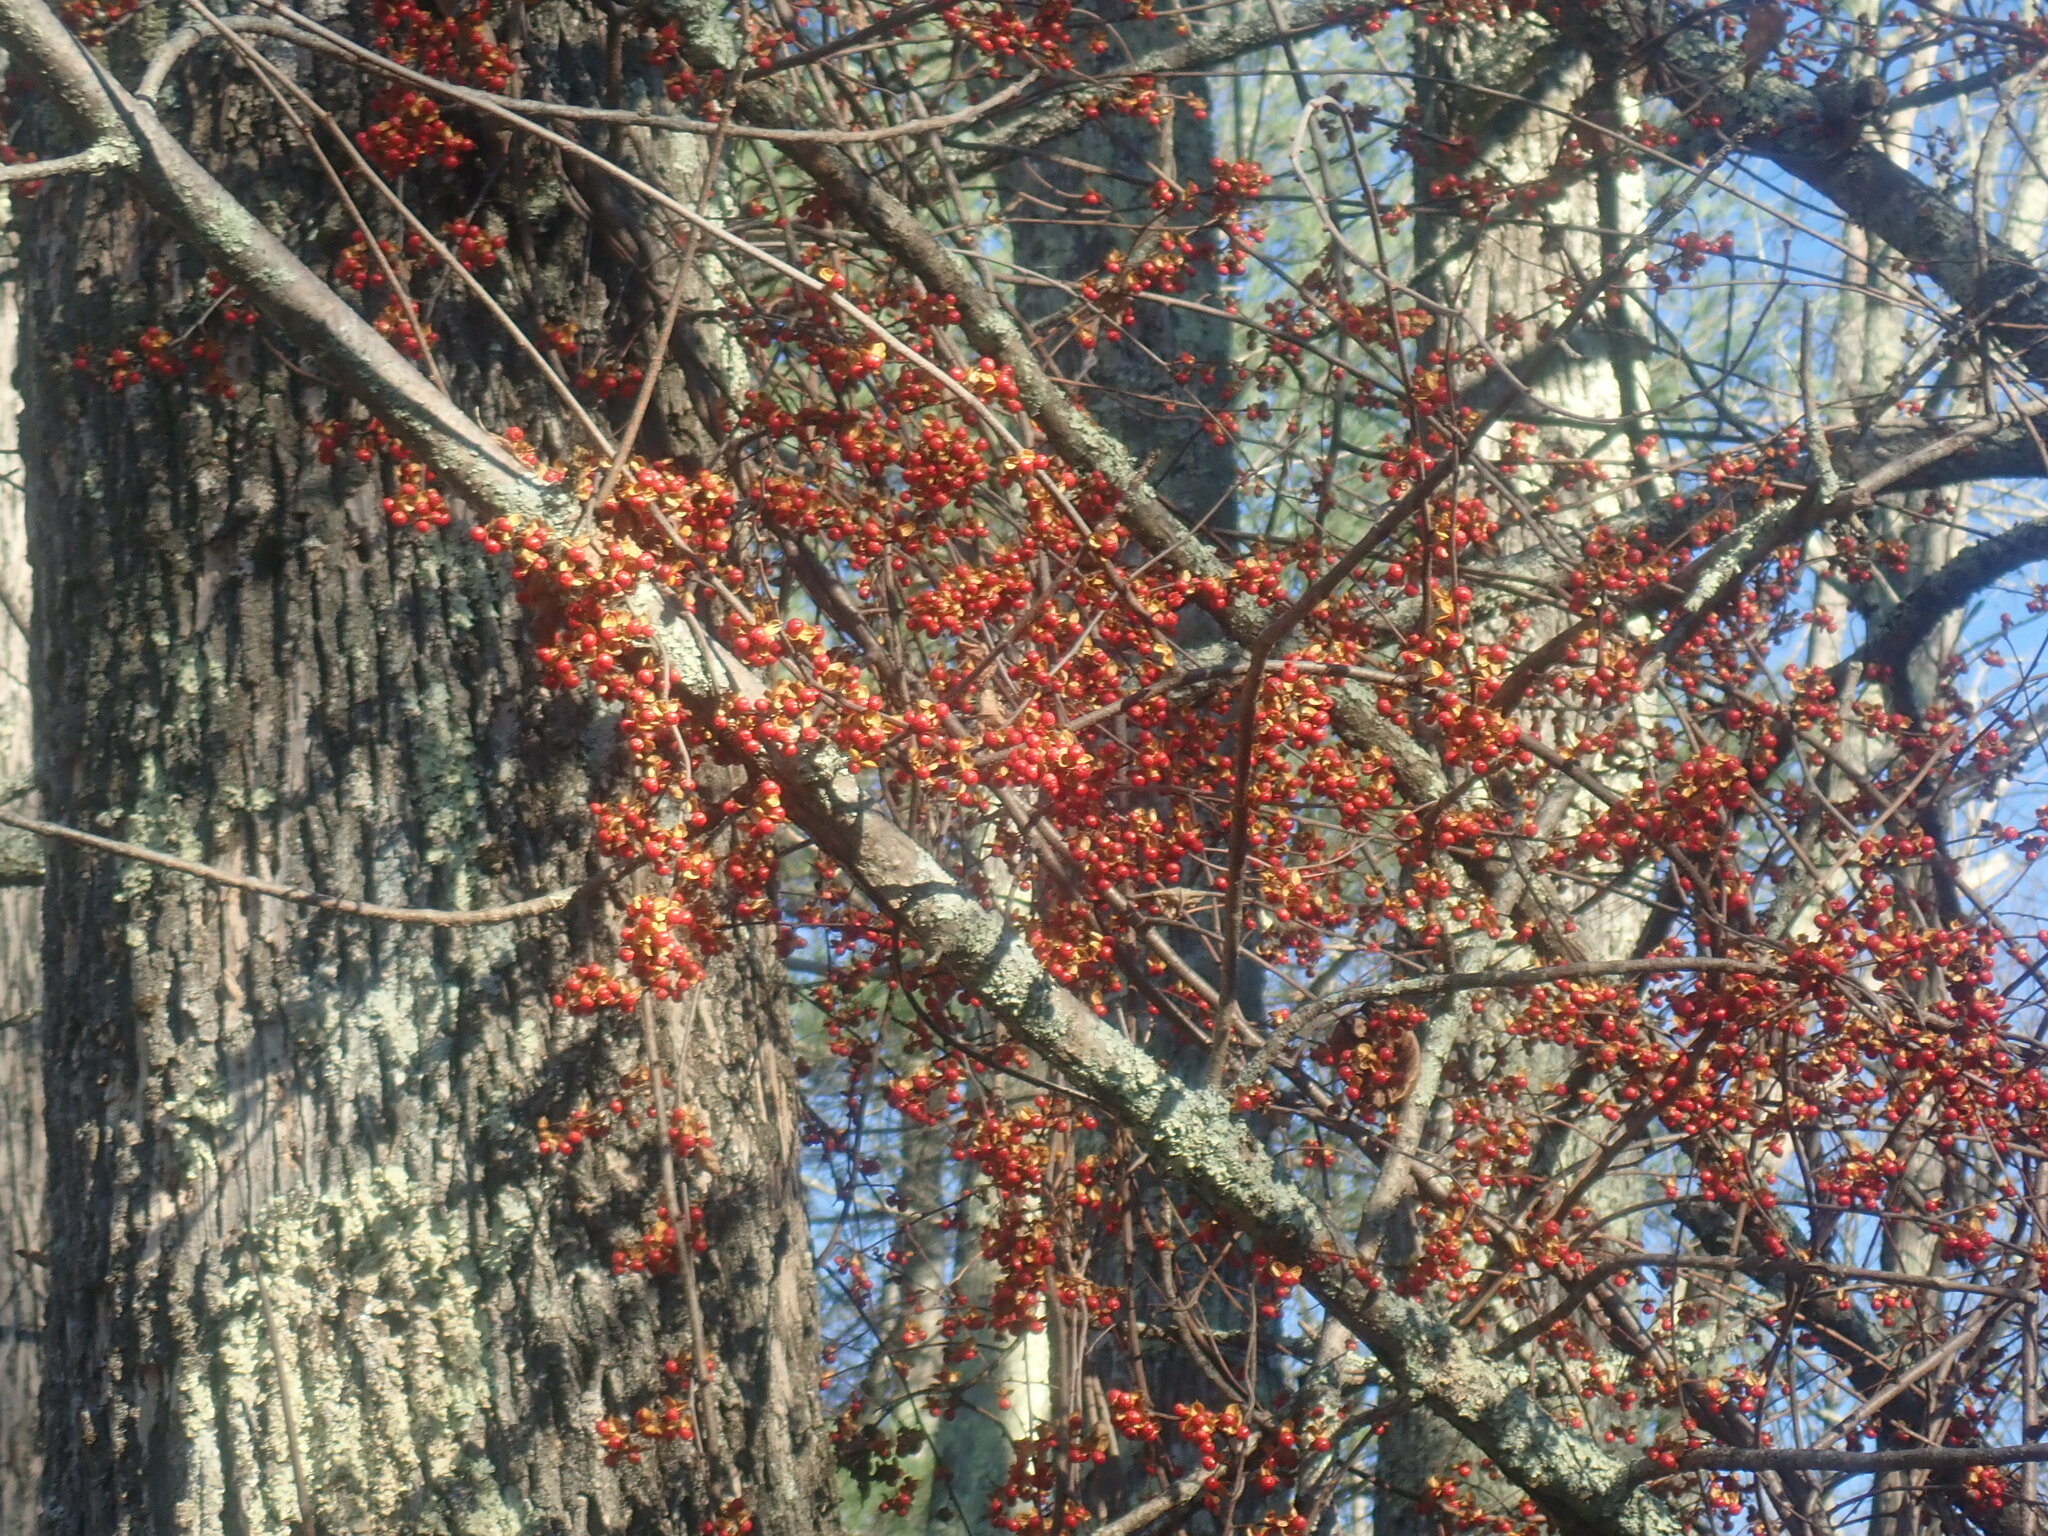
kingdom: Plantae
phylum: Tracheophyta
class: Magnoliopsida
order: Celastrales
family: Celastraceae
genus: Celastrus
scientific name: Celastrus orbiculatus
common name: Oriental bittersweet
